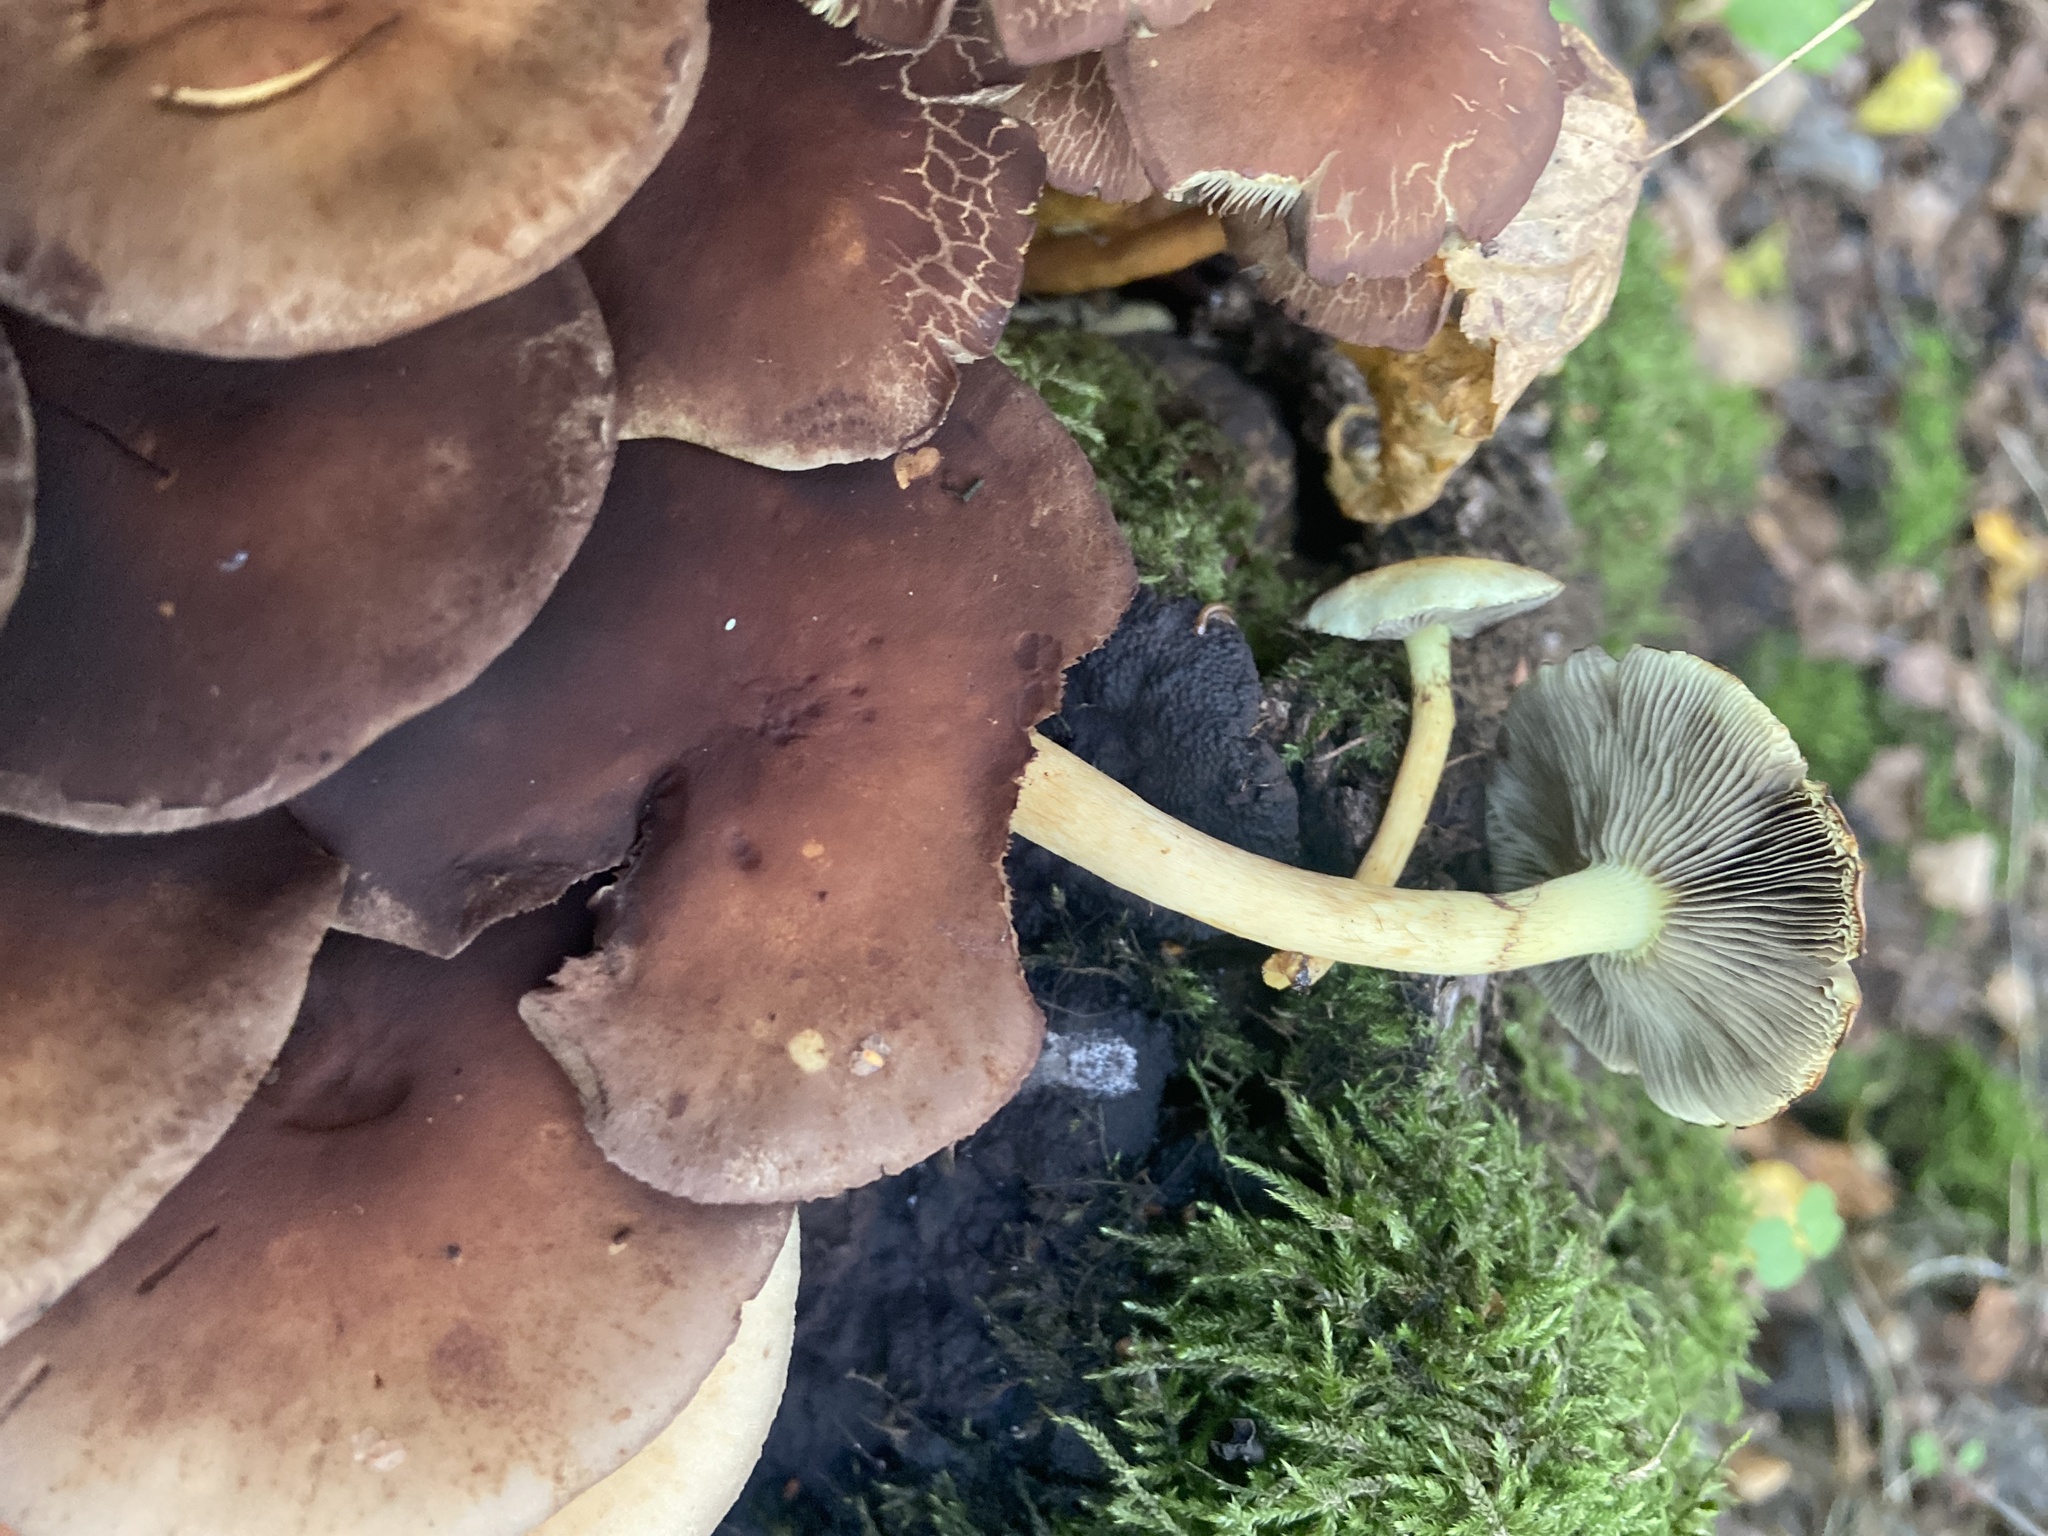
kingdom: Fungi
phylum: Basidiomycota
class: Agaricomycetes
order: Agaricales
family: Strophariaceae
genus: Hypholoma
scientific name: Hypholoma fasciculare
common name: Sulphur tuft
